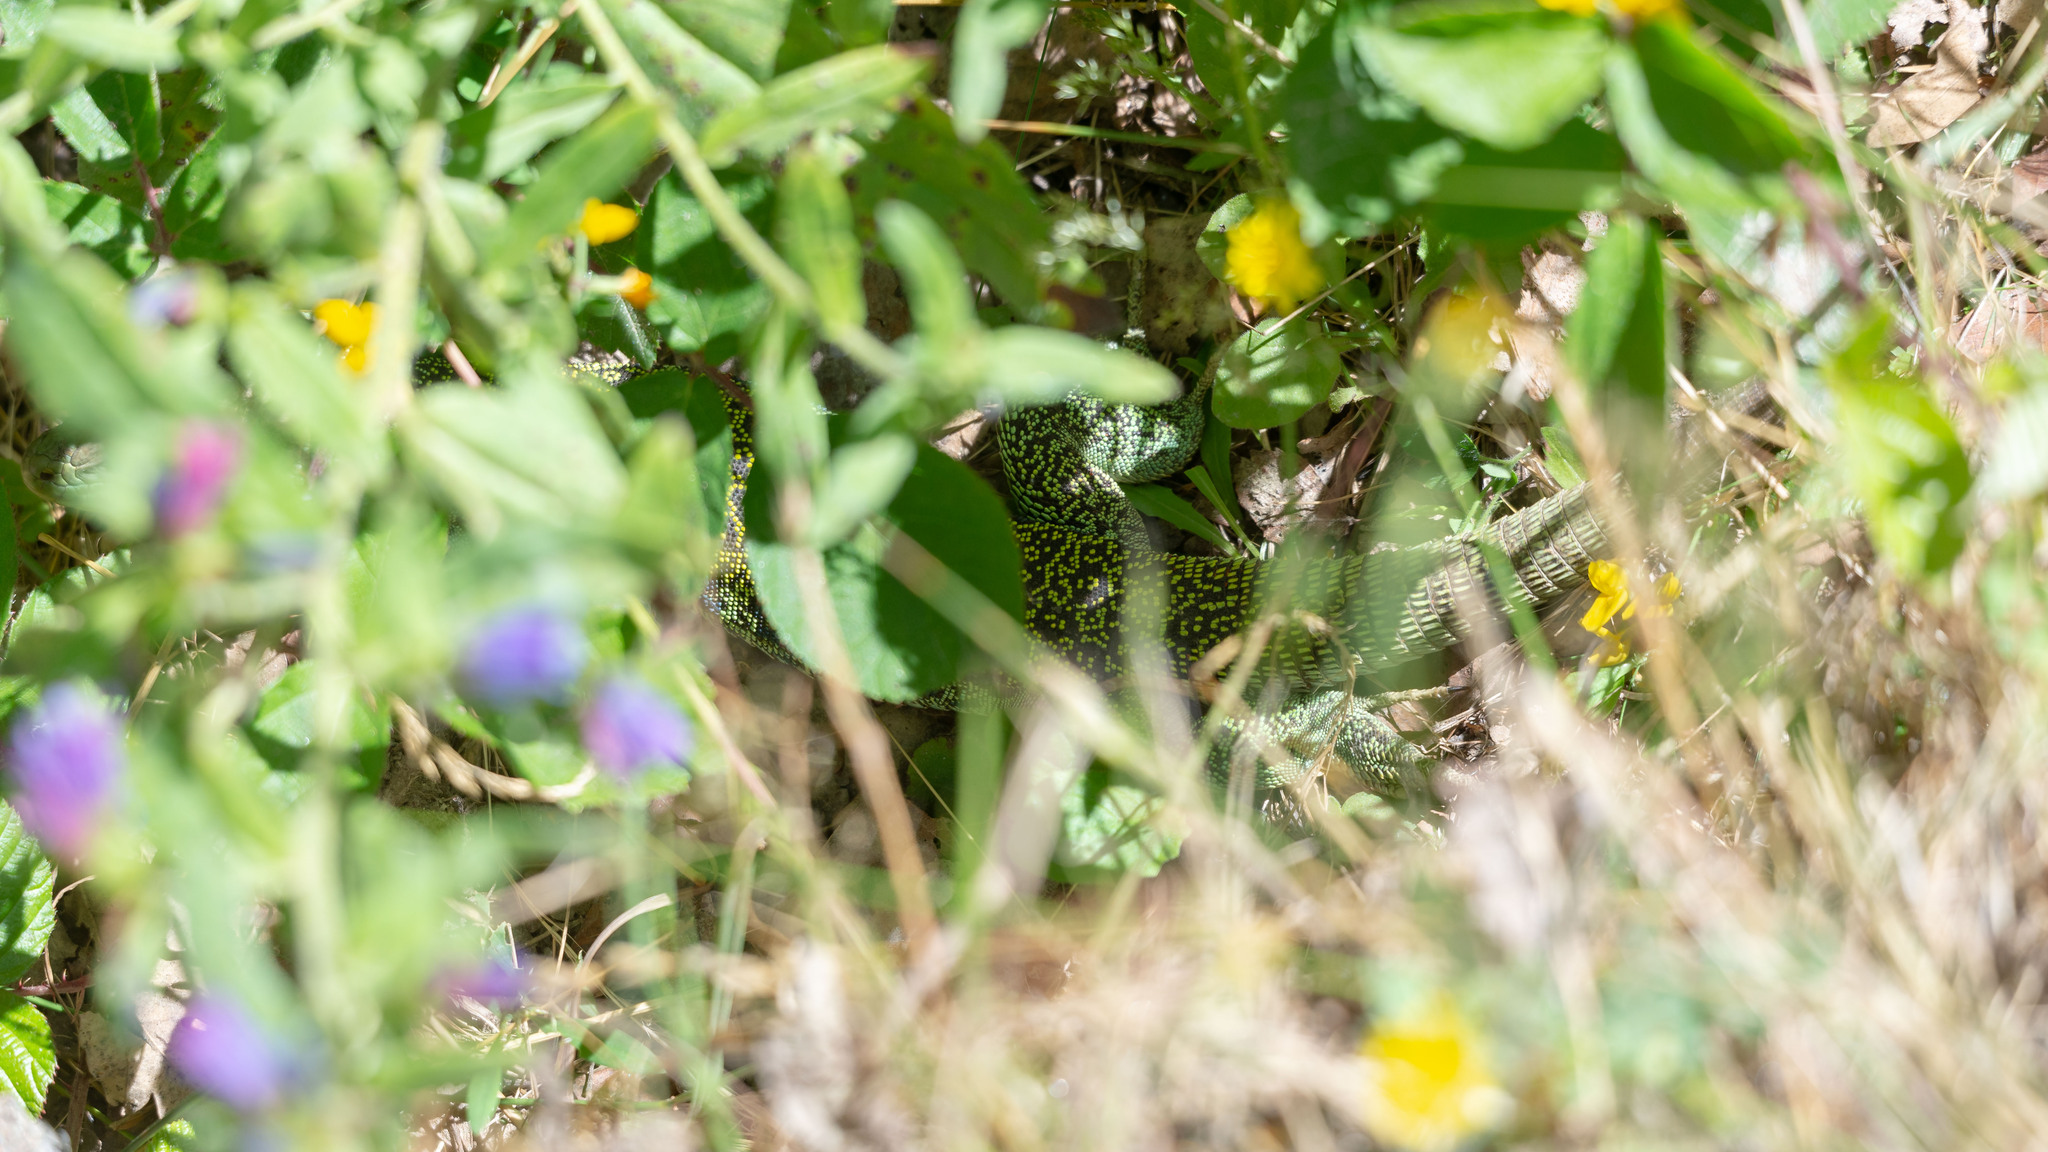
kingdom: Animalia
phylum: Chordata
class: Squamata
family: Lacertidae
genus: Timon
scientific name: Timon lepidus
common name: Ocellated lizard
